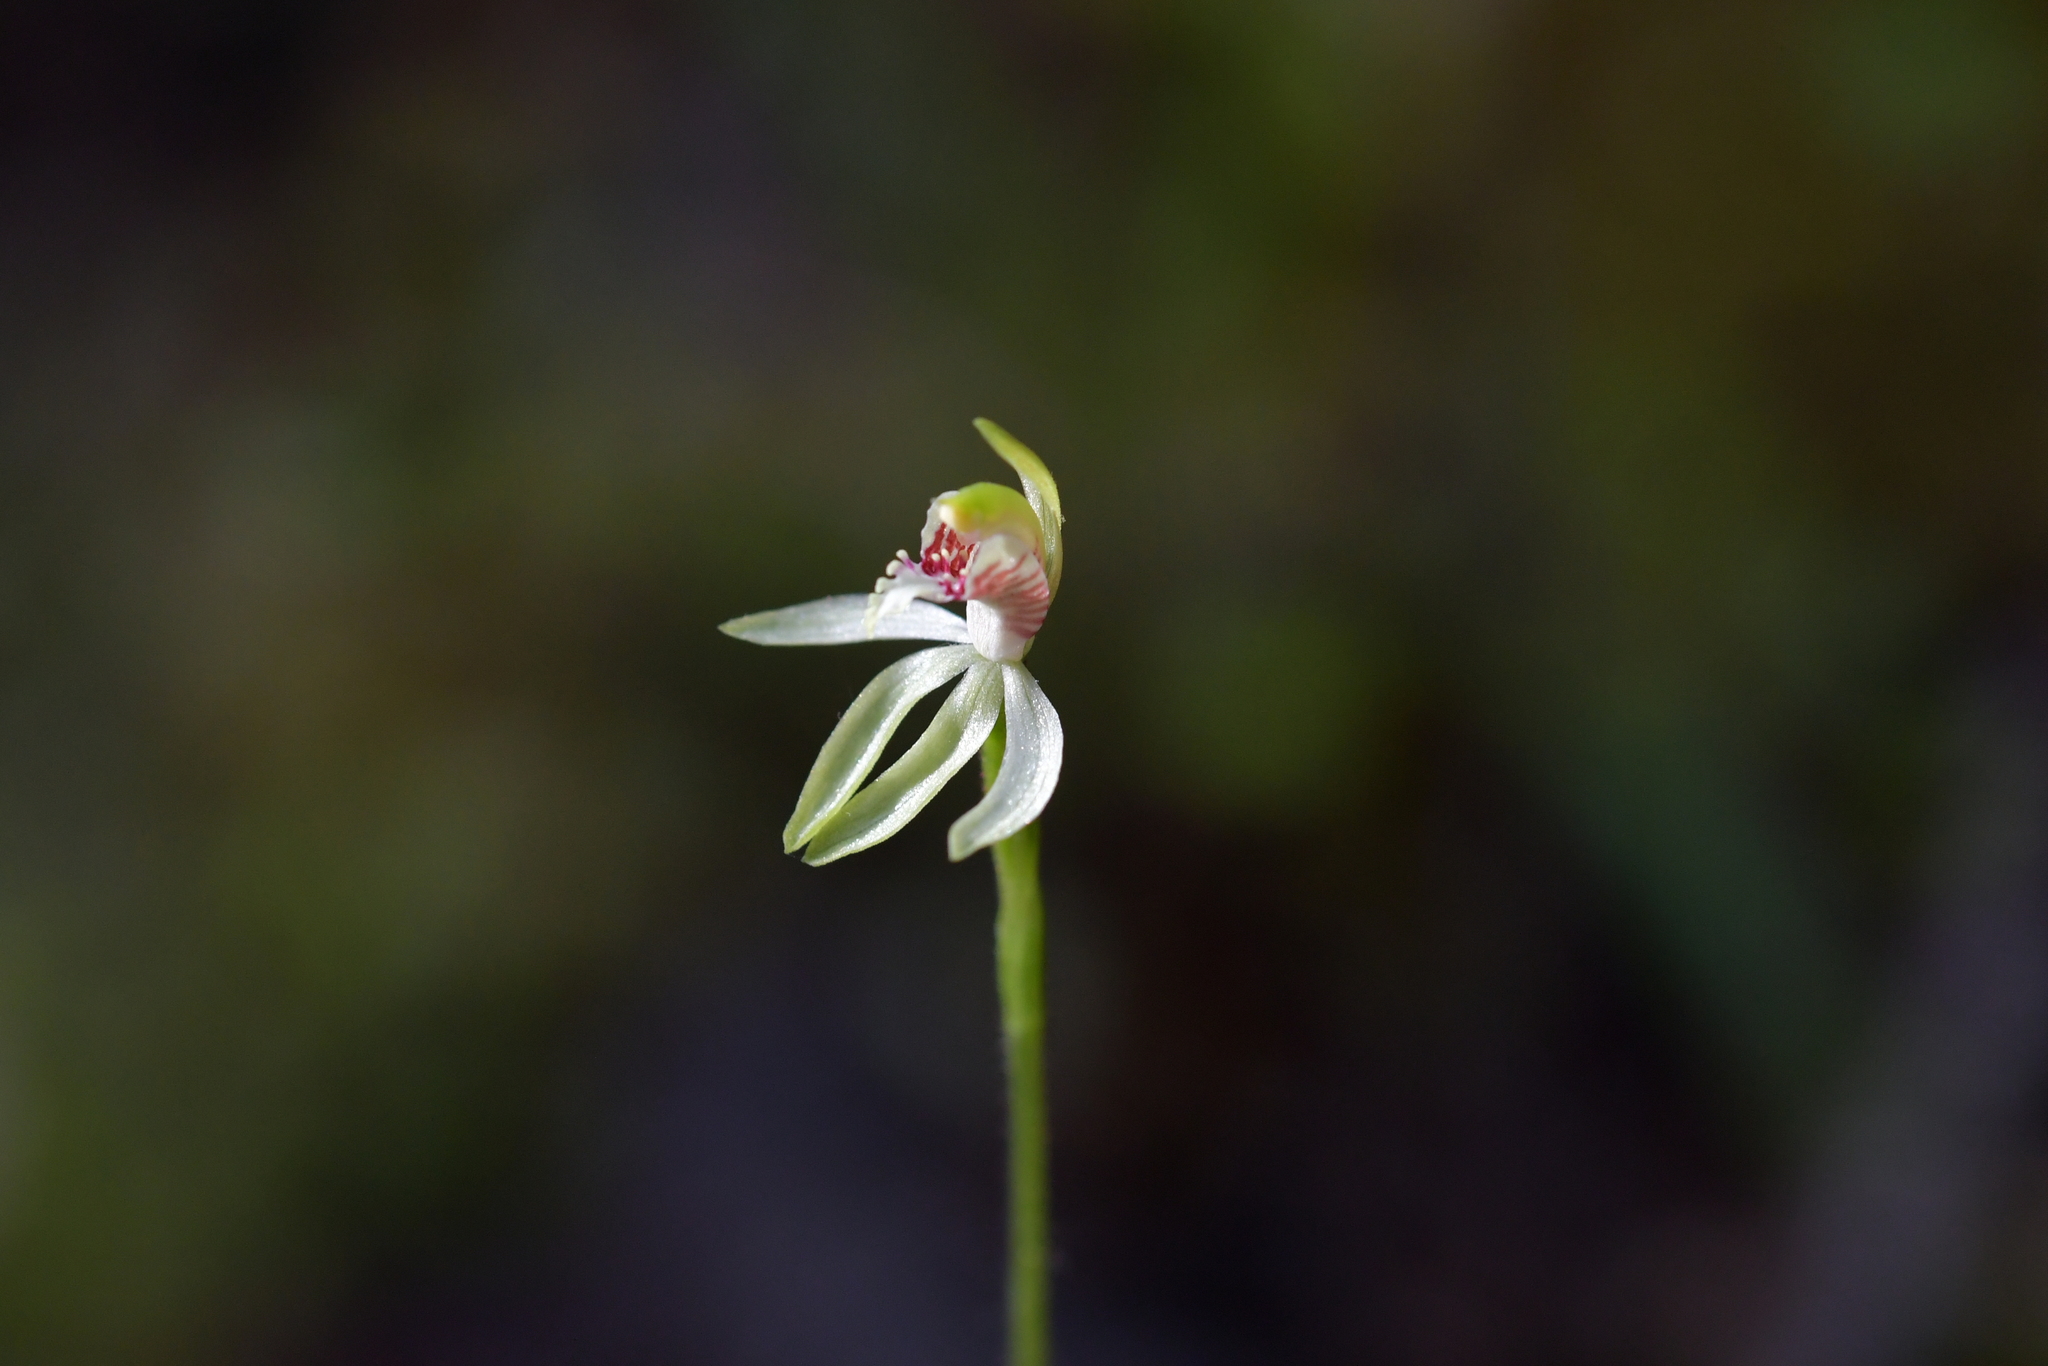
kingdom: Plantae
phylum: Tracheophyta
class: Liliopsida
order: Asparagales
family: Orchidaceae
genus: Caladenia
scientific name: Caladenia chlorostyla
